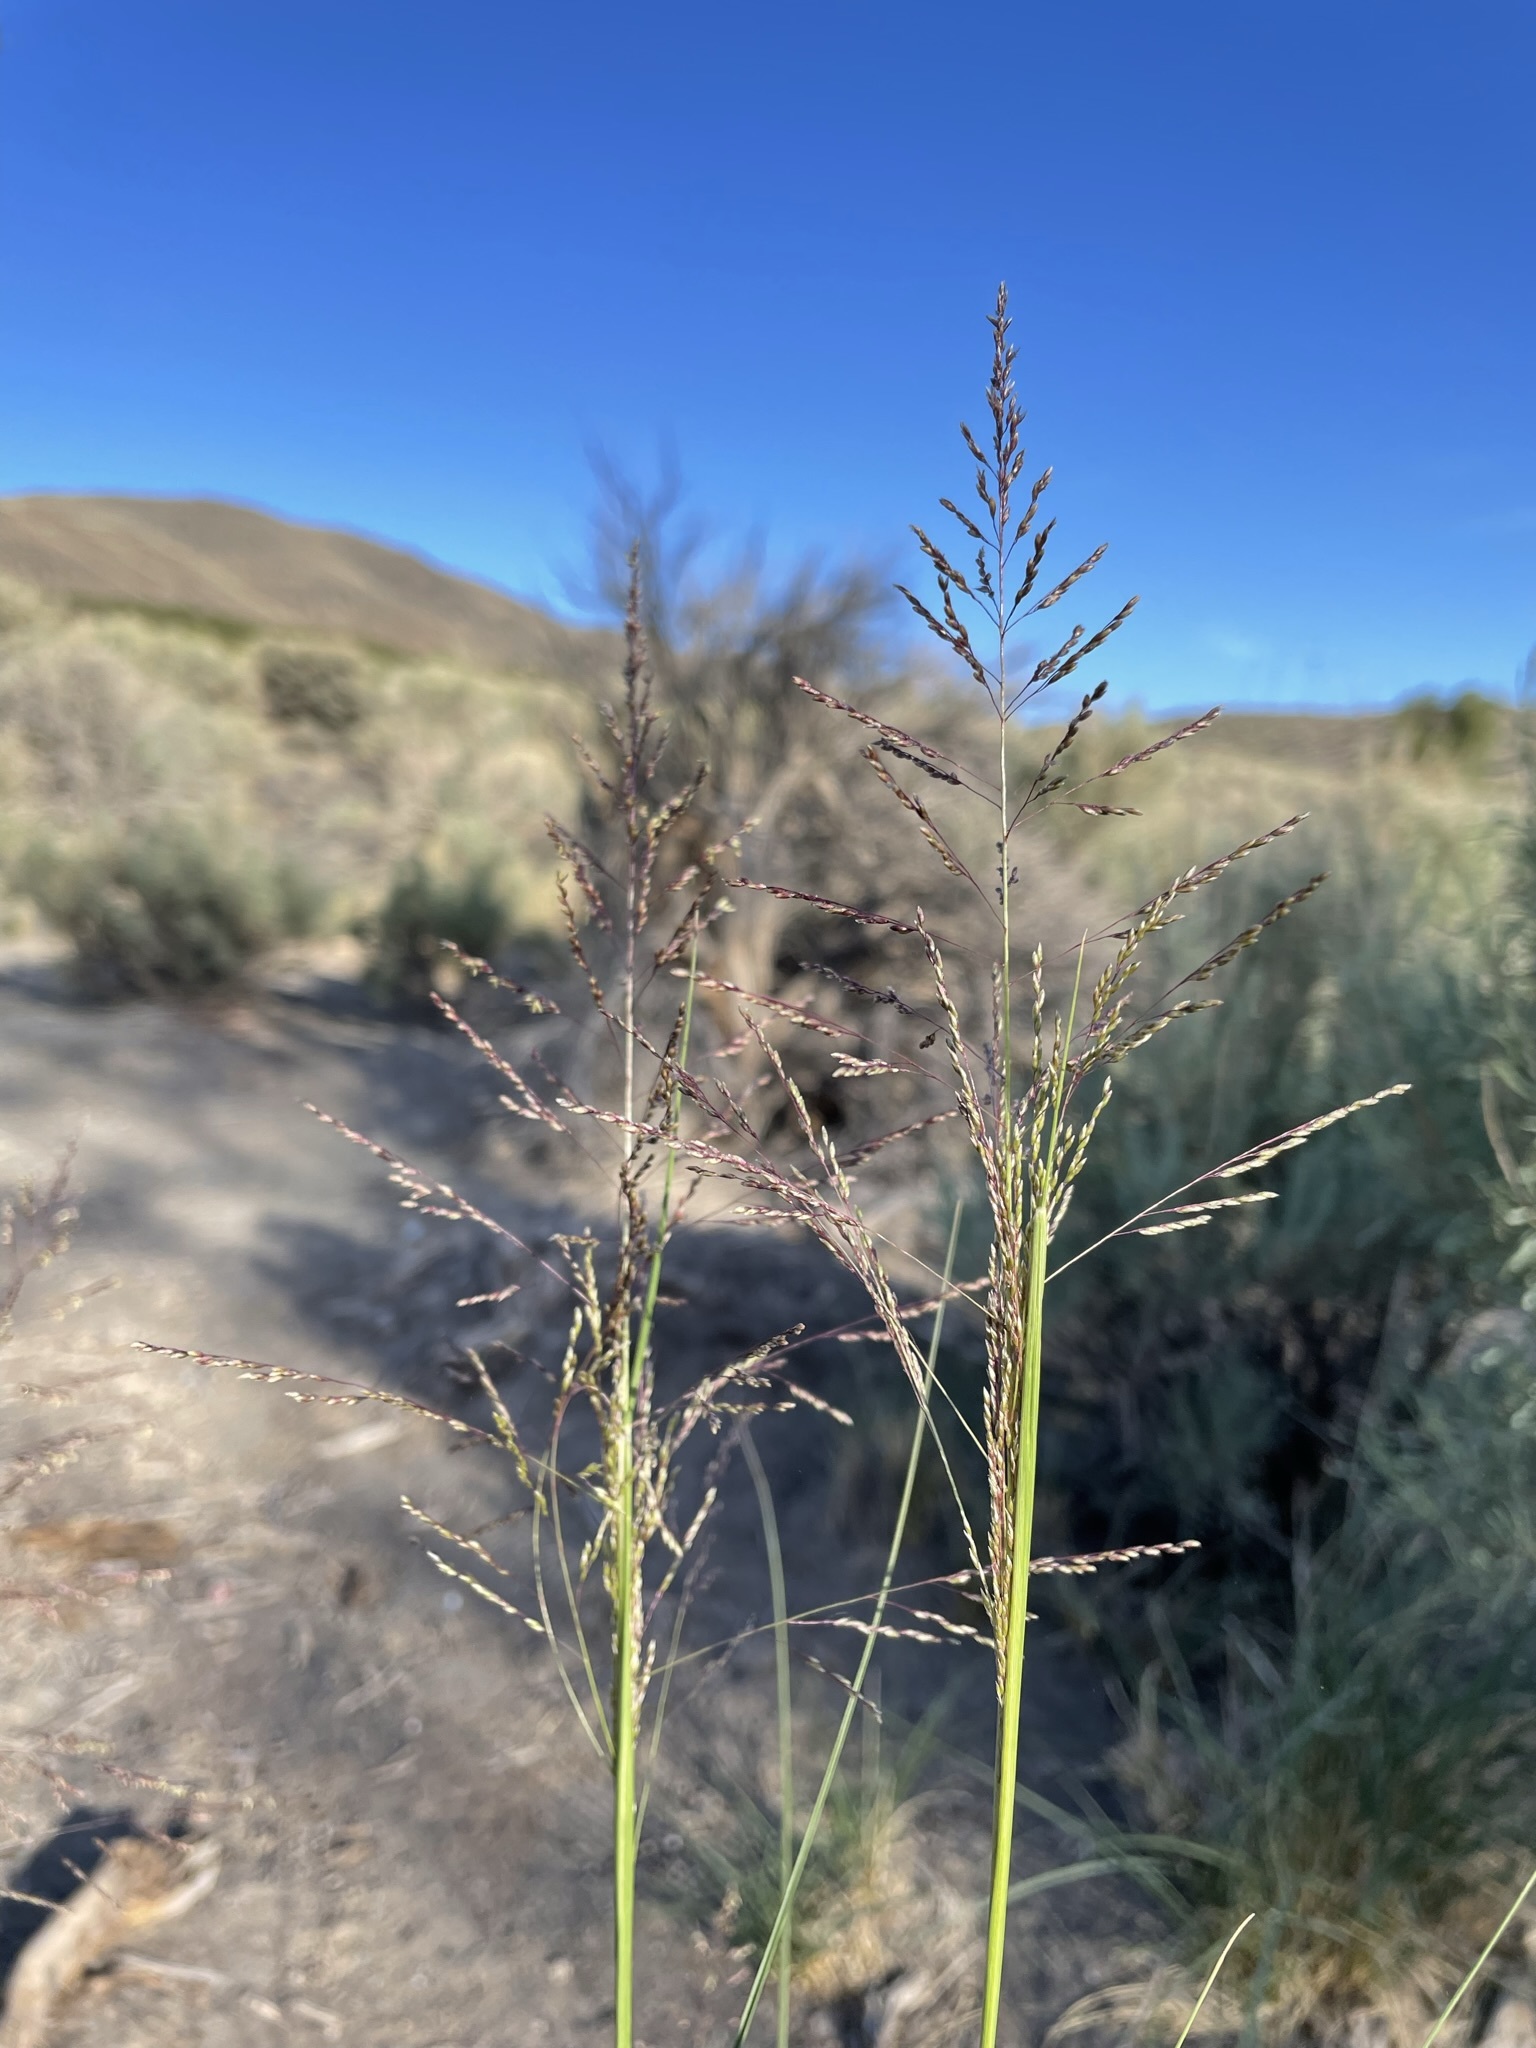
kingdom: Plantae
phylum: Tracheophyta
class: Liliopsida
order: Poales
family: Poaceae
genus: Sporobolus
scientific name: Sporobolus airoides
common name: Alkali sacaton
